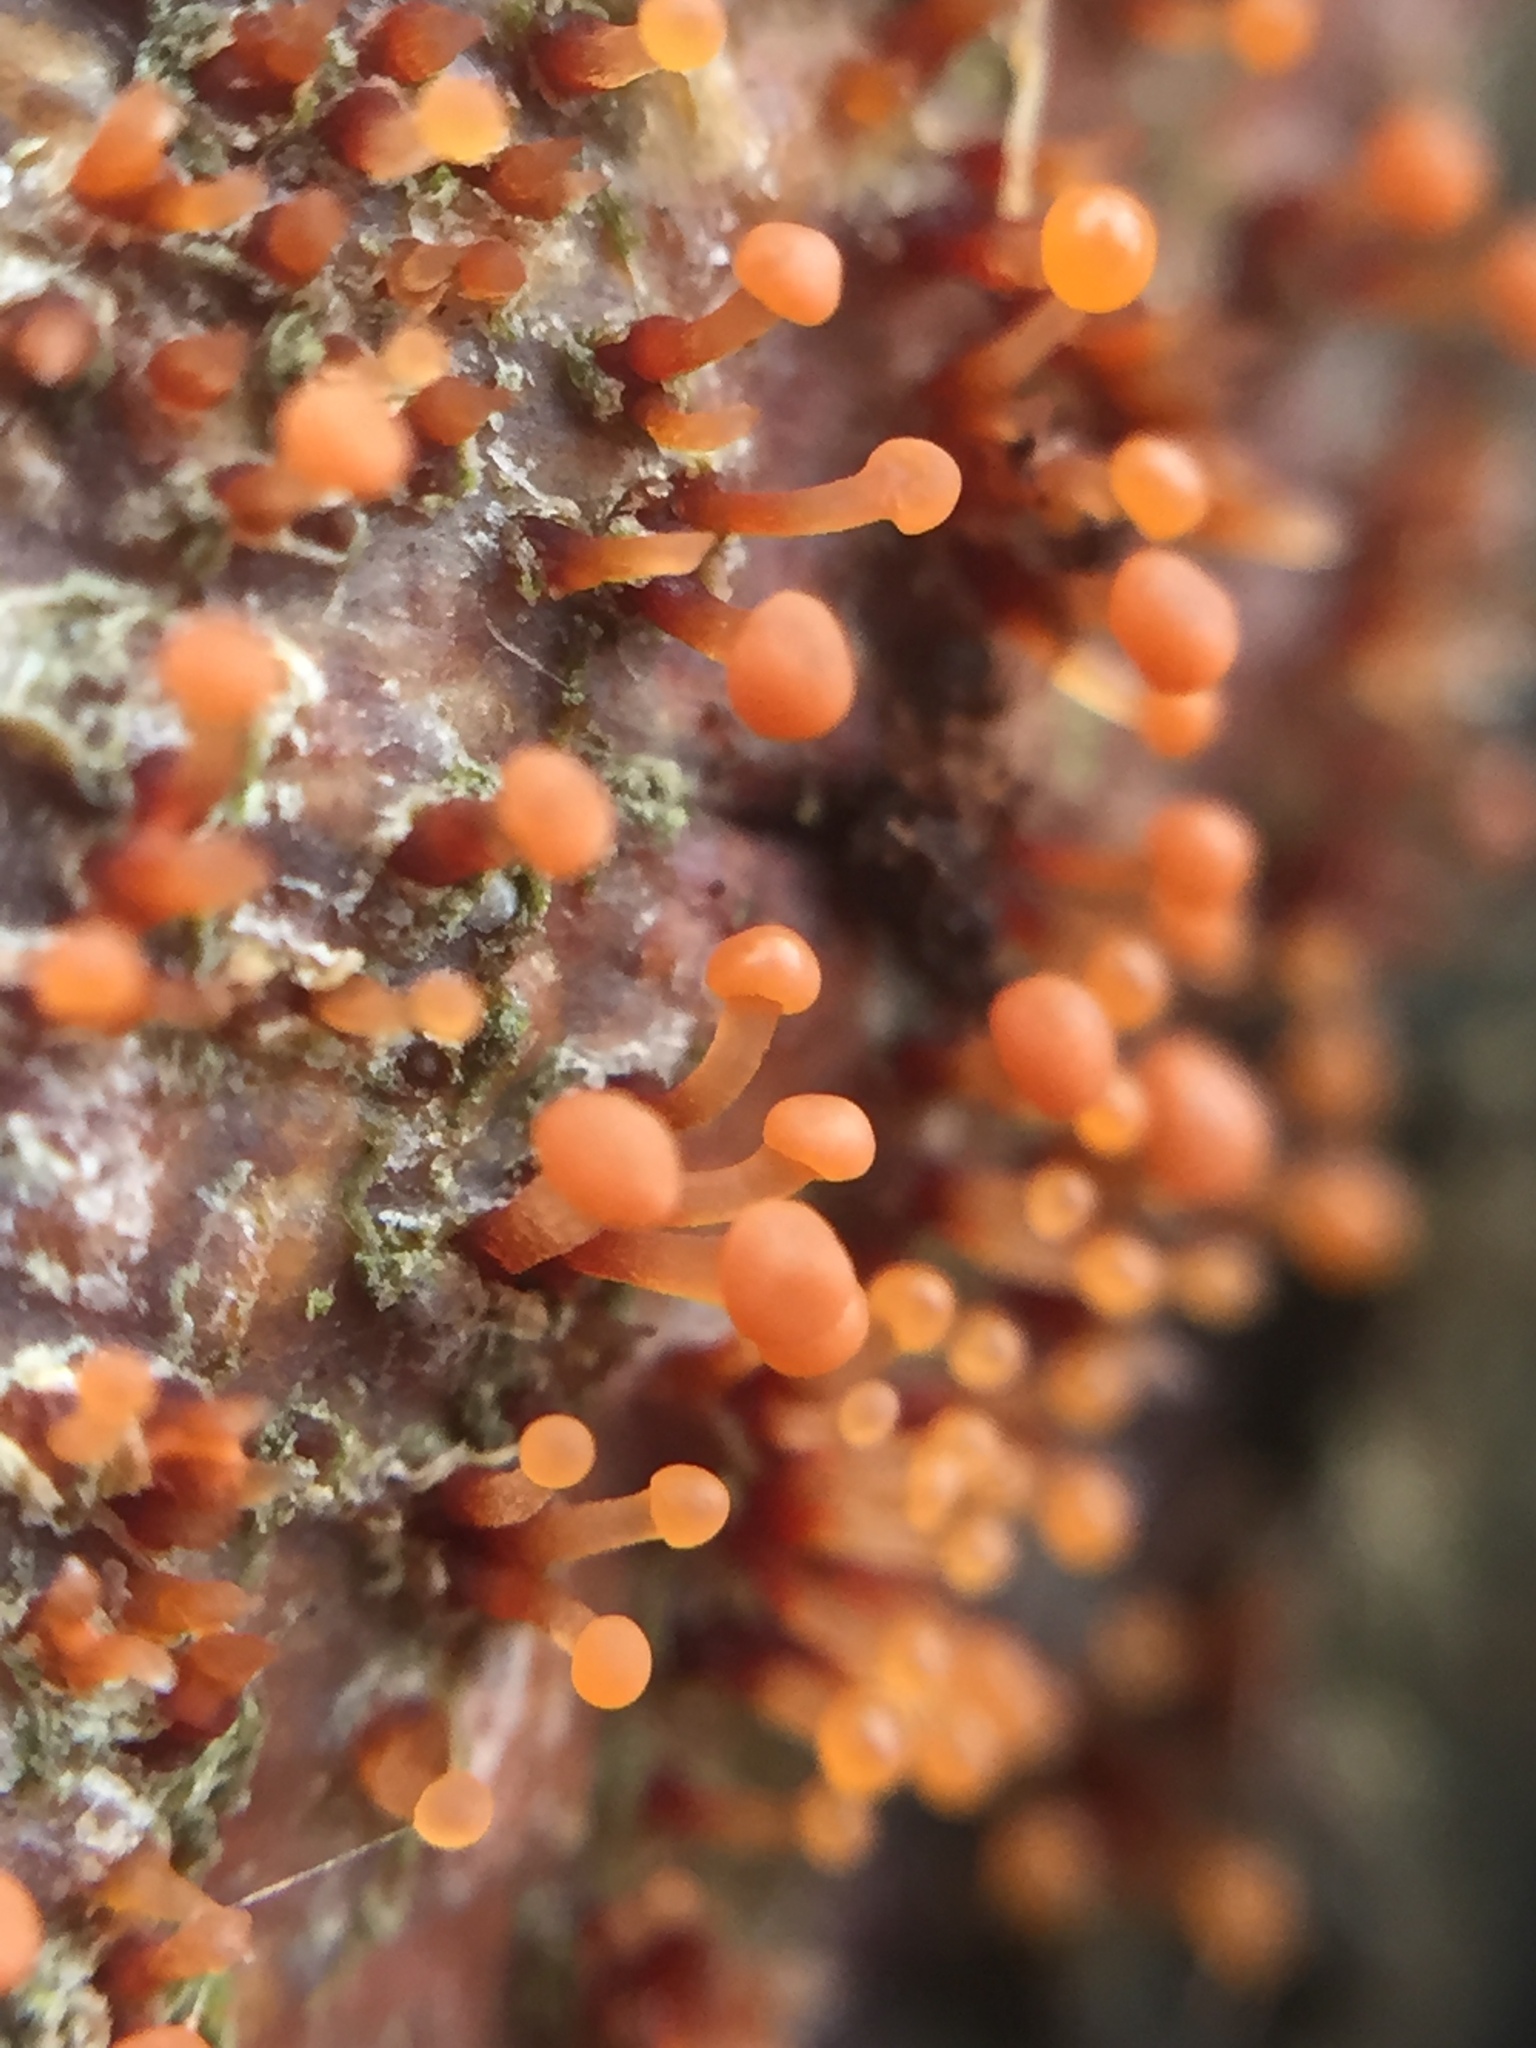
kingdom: Fungi
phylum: Ascomycota
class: Sordariomycetes
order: Hypocreales
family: Nectriaceae
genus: Murinectria
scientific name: Murinectria polythalama
